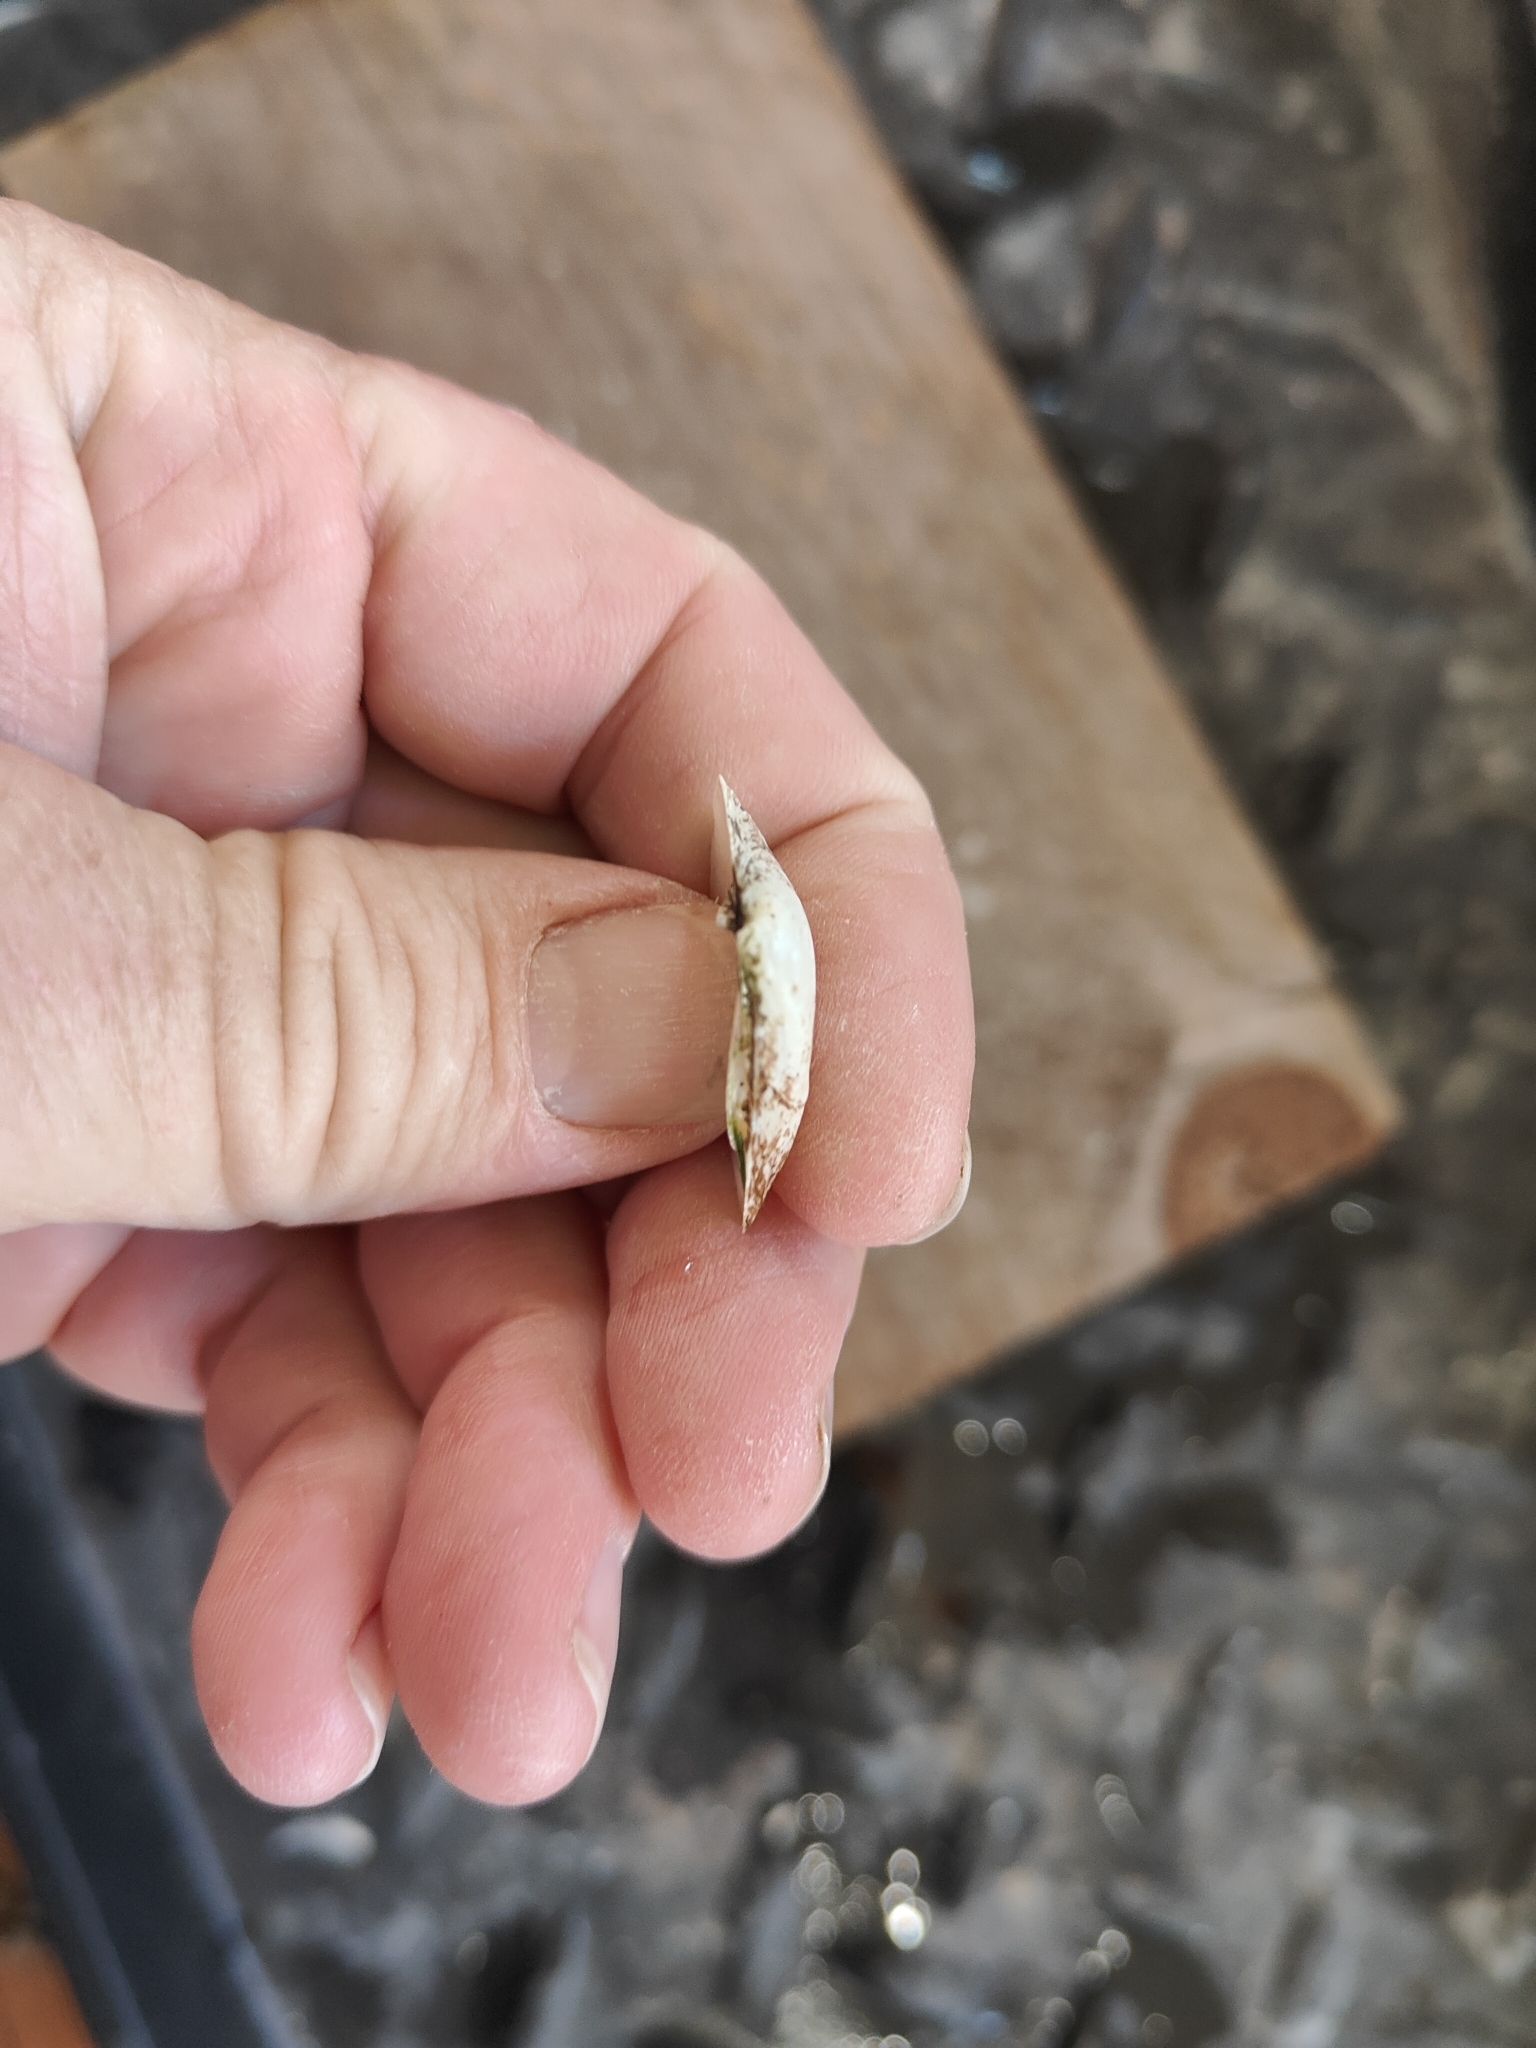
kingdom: Animalia
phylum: Mollusca
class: Bivalvia
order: Unionida
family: Unionidae
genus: Fusconaia
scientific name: Fusconaia flava
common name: Wabash pigtoe
